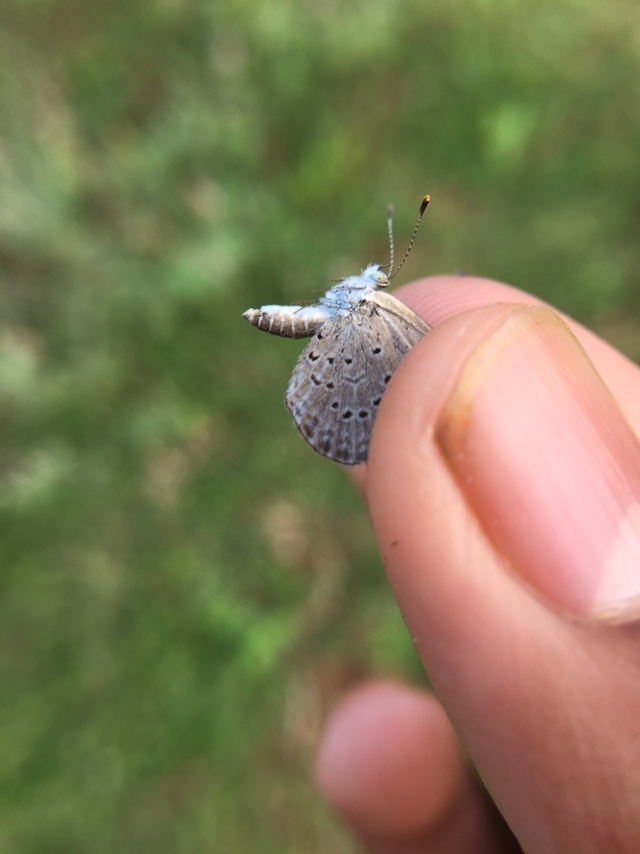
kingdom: Animalia
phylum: Arthropoda
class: Insecta
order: Lepidoptera
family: Lycaenidae
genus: Zizeeria
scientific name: Zizeeria karsandra
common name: Dark grass blue
